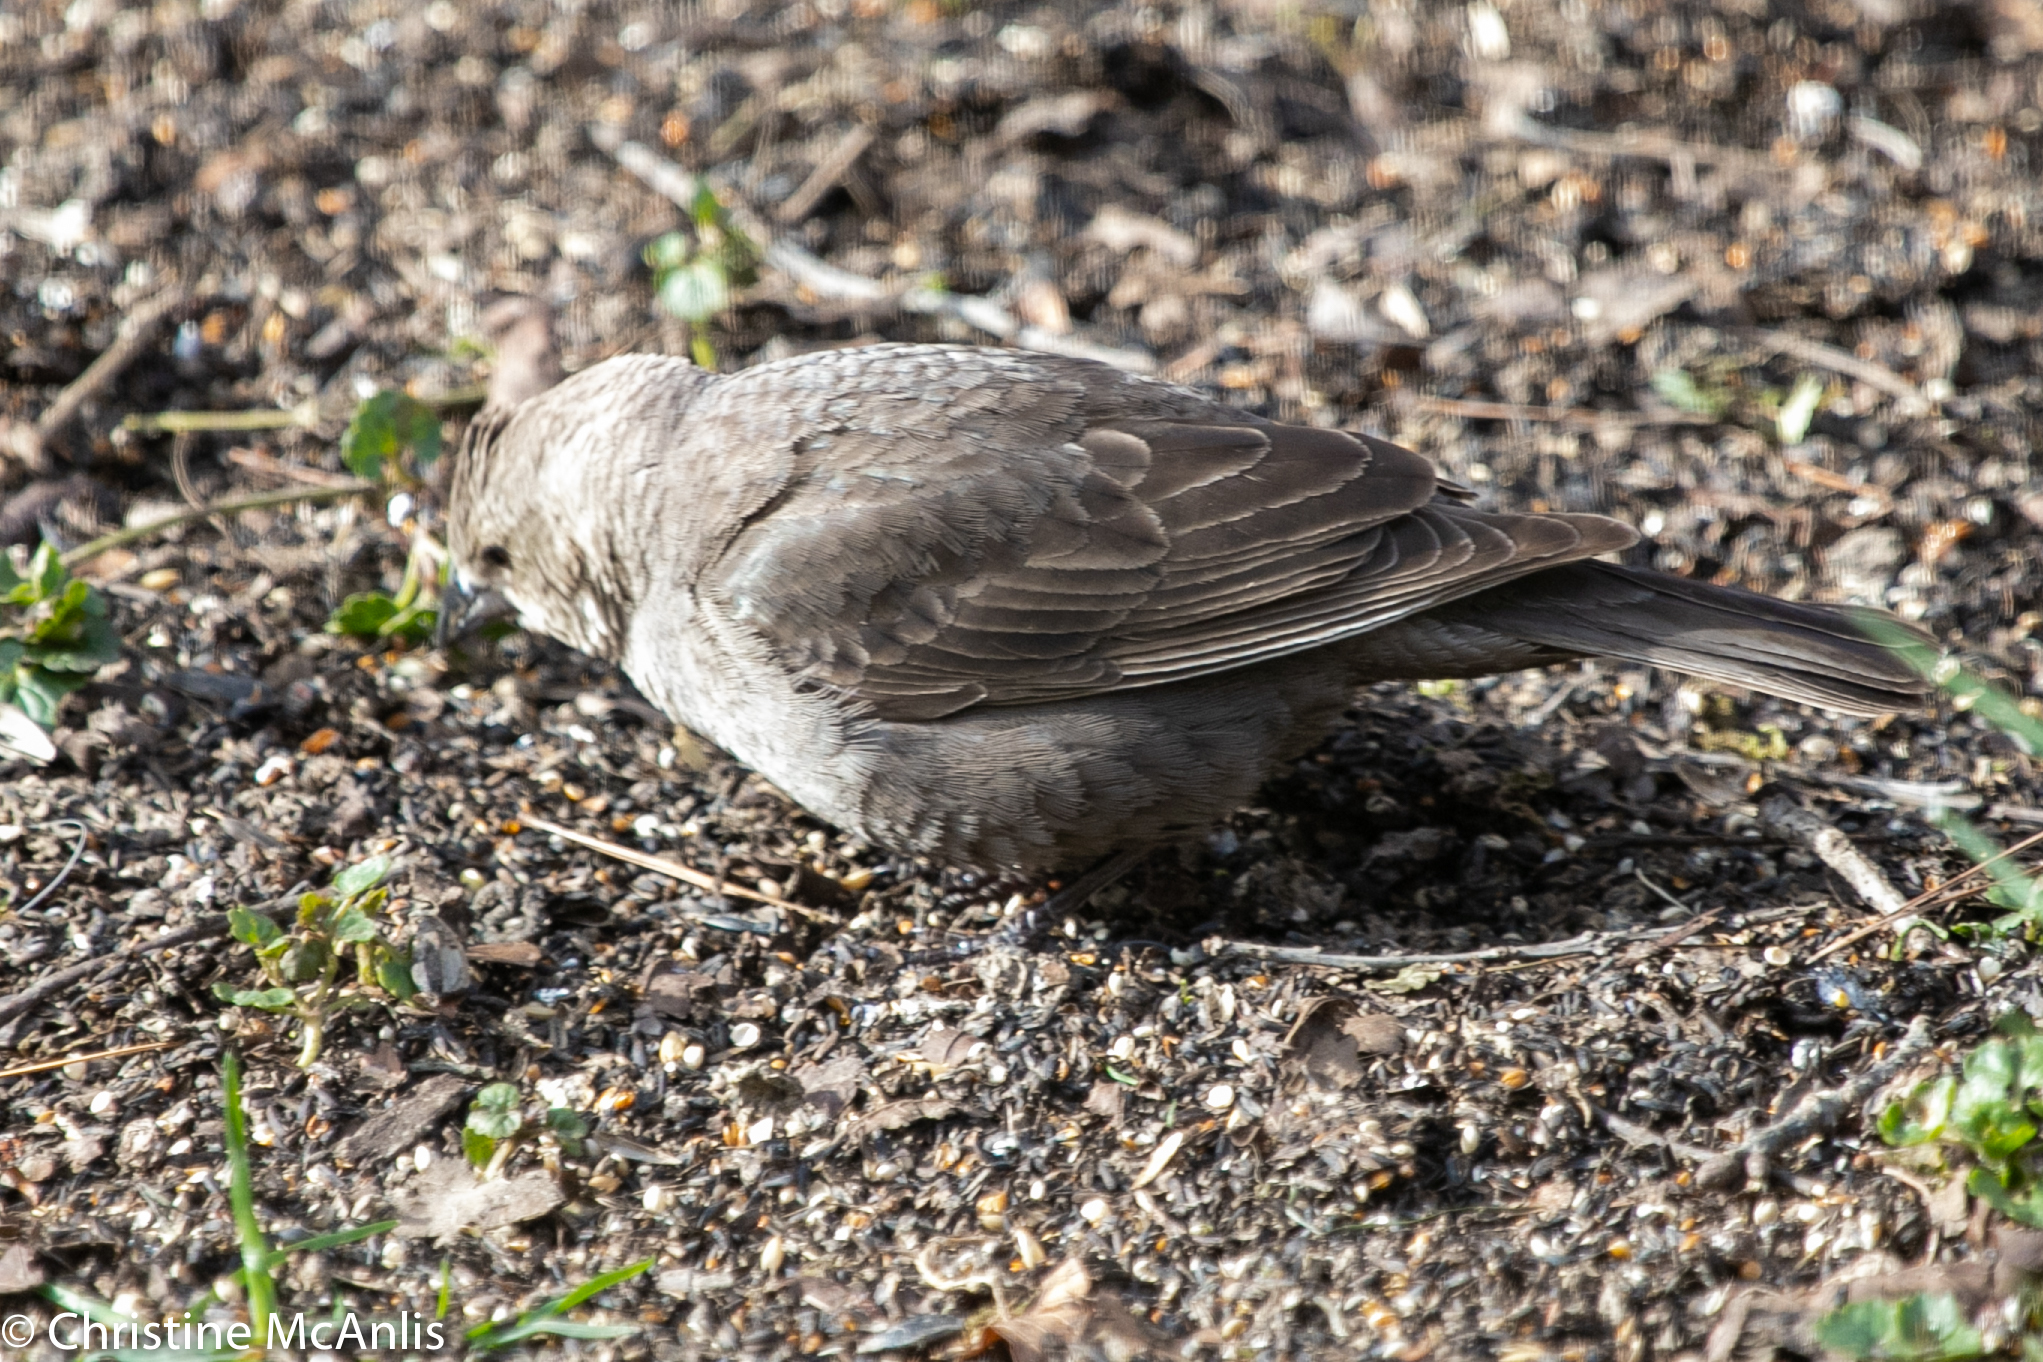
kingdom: Animalia
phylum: Chordata
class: Aves
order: Passeriformes
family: Icteridae
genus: Molothrus
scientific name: Molothrus ater
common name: Brown-headed cowbird
